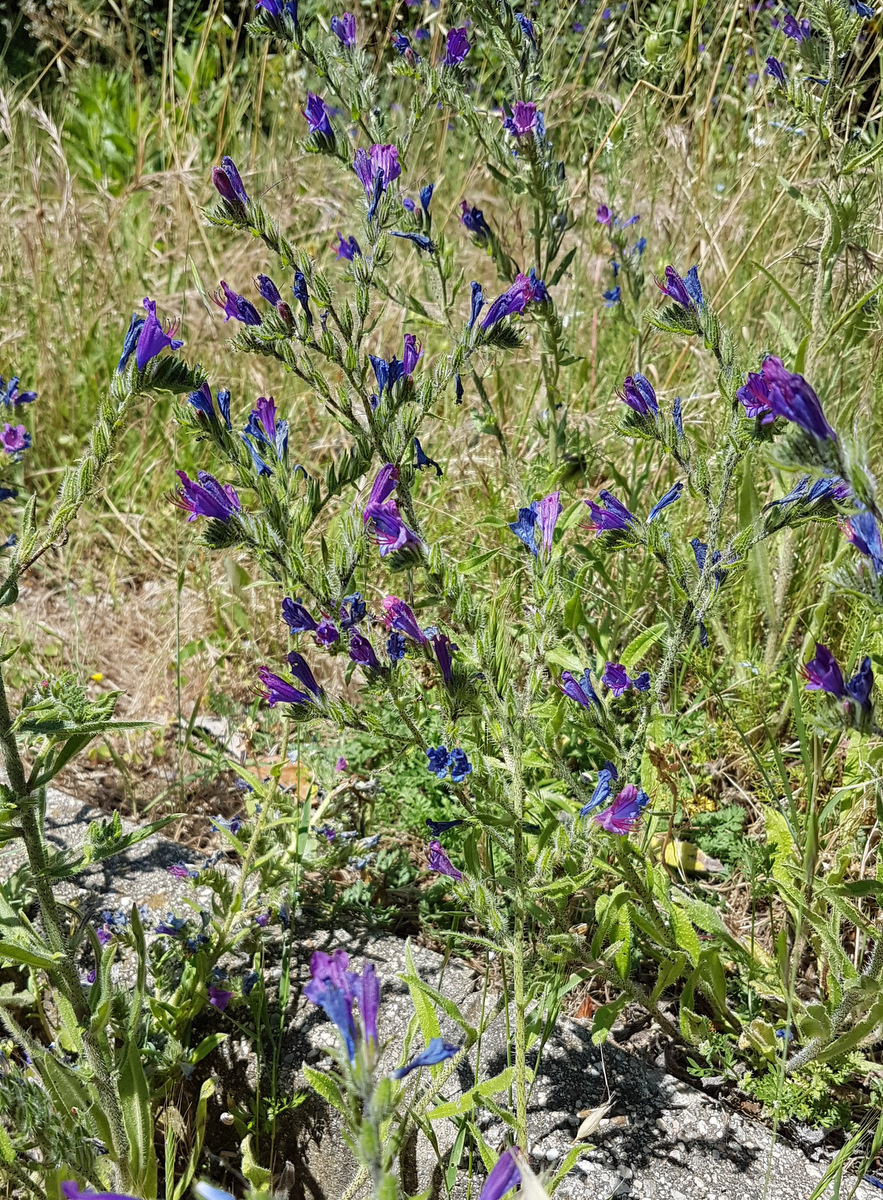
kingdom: Plantae
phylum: Tracheophyta
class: Magnoliopsida
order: Boraginales
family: Boraginaceae
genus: Echium
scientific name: Echium vulgare
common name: Common viper's bugloss
